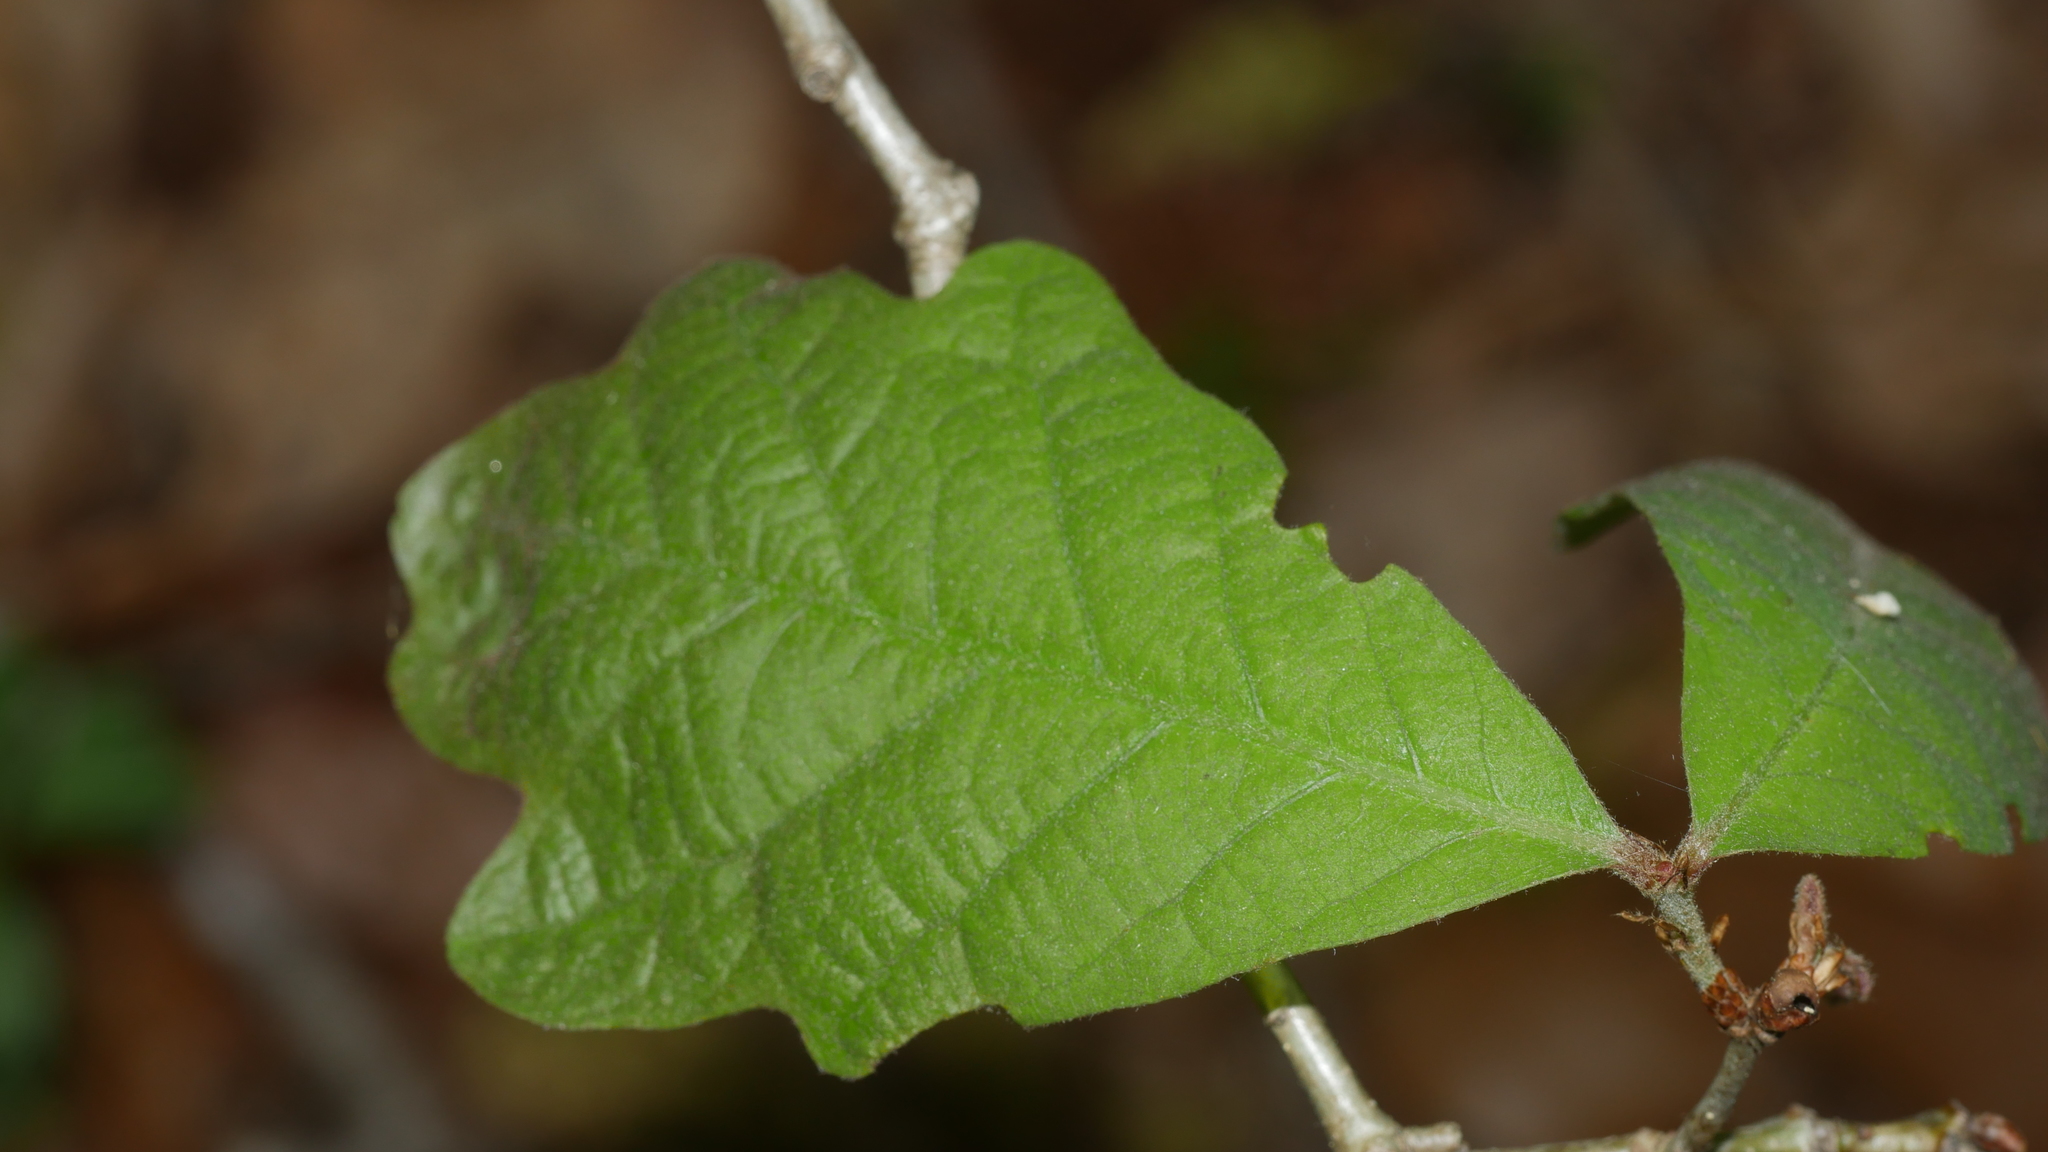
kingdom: Plantae
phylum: Tracheophyta
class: Magnoliopsida
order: Fagales
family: Fagaceae
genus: Quercus
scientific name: Quercus alba
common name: White oak
